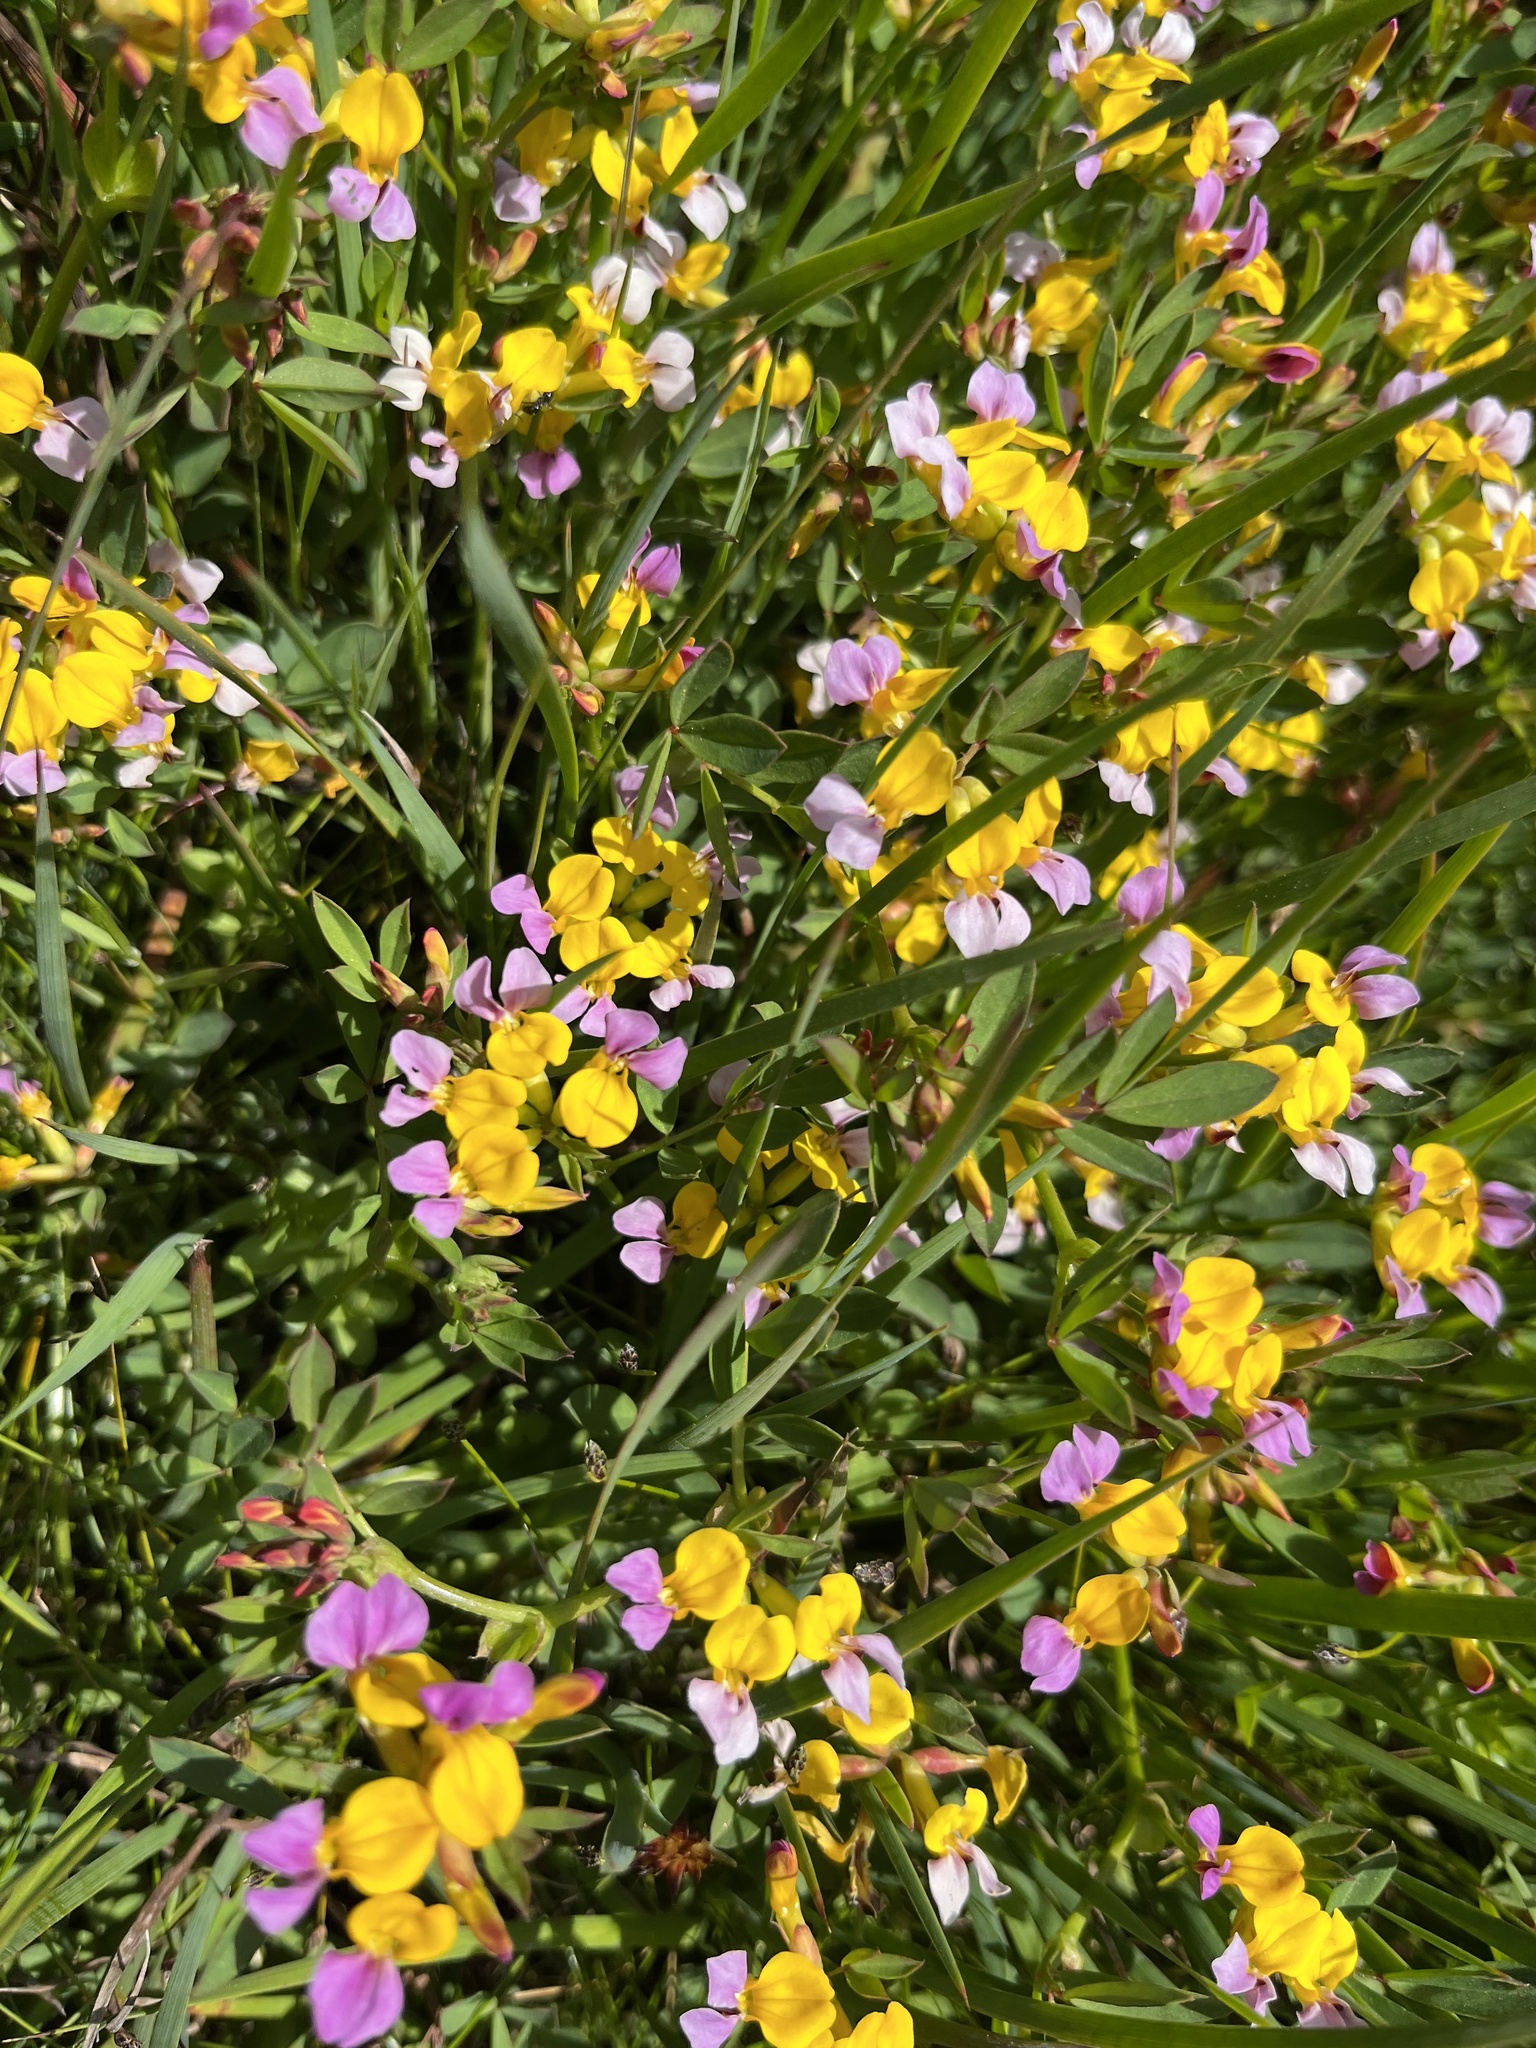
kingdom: Plantae
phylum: Tracheophyta
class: Magnoliopsida
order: Fabales
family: Fabaceae
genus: Hosackia
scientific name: Hosackia gracilis
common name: Seaside bird's-foot lotus
